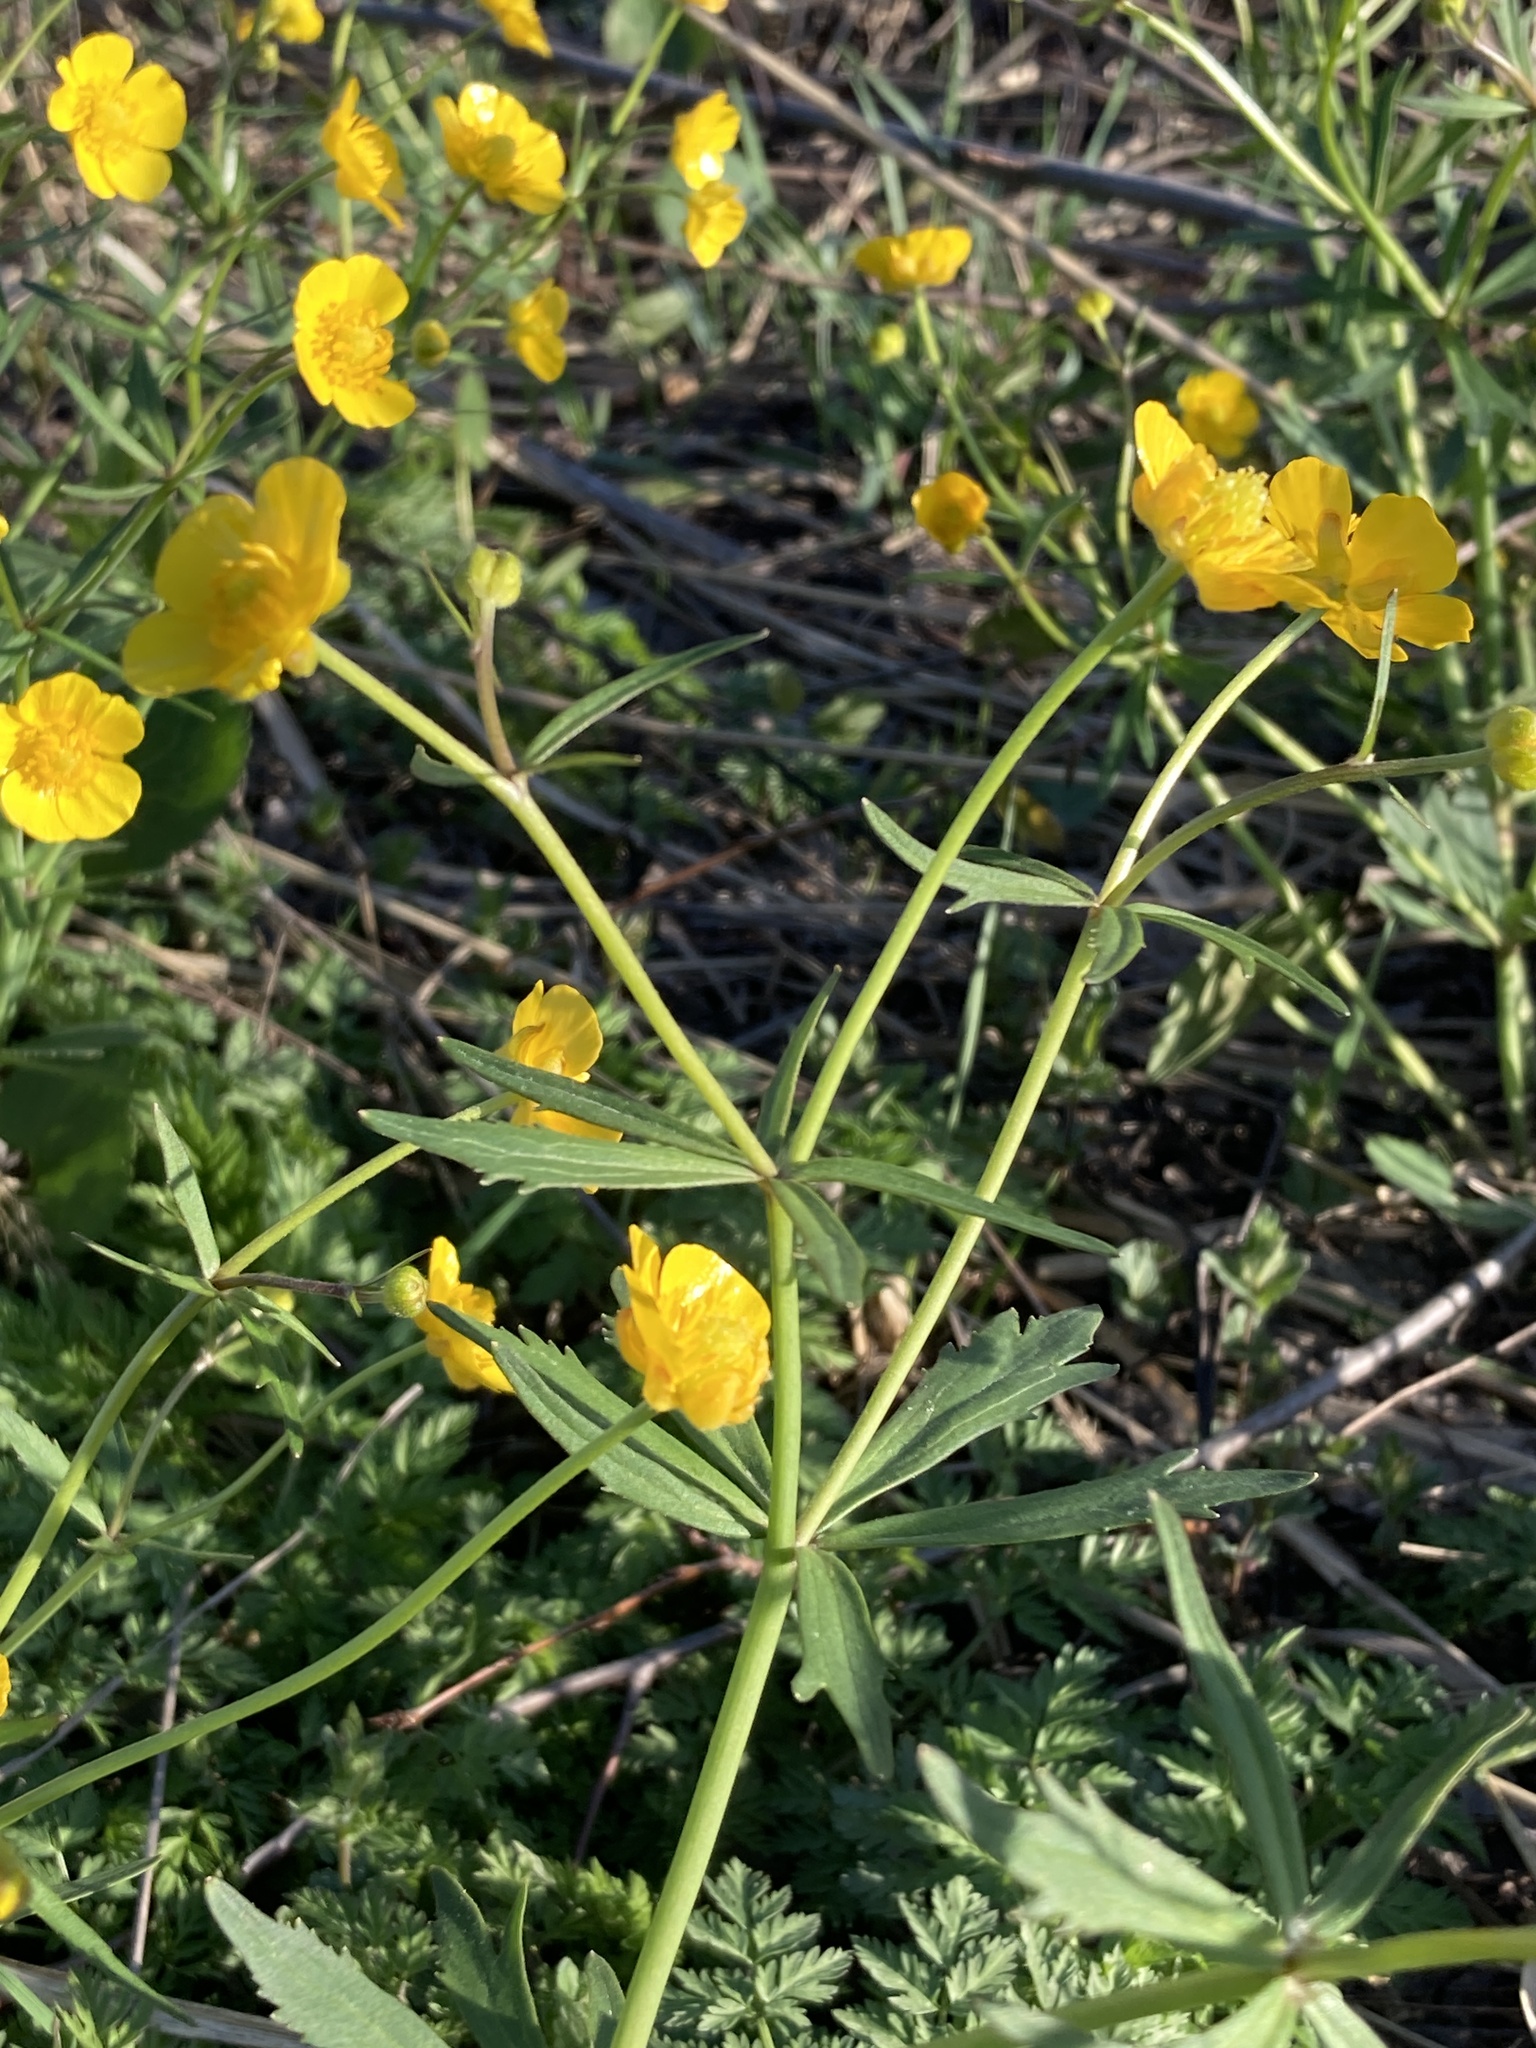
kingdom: Plantae
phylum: Tracheophyta
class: Magnoliopsida
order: Ranunculales
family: Ranunculaceae
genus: Ranunculus
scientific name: Ranunculus cassubicus
